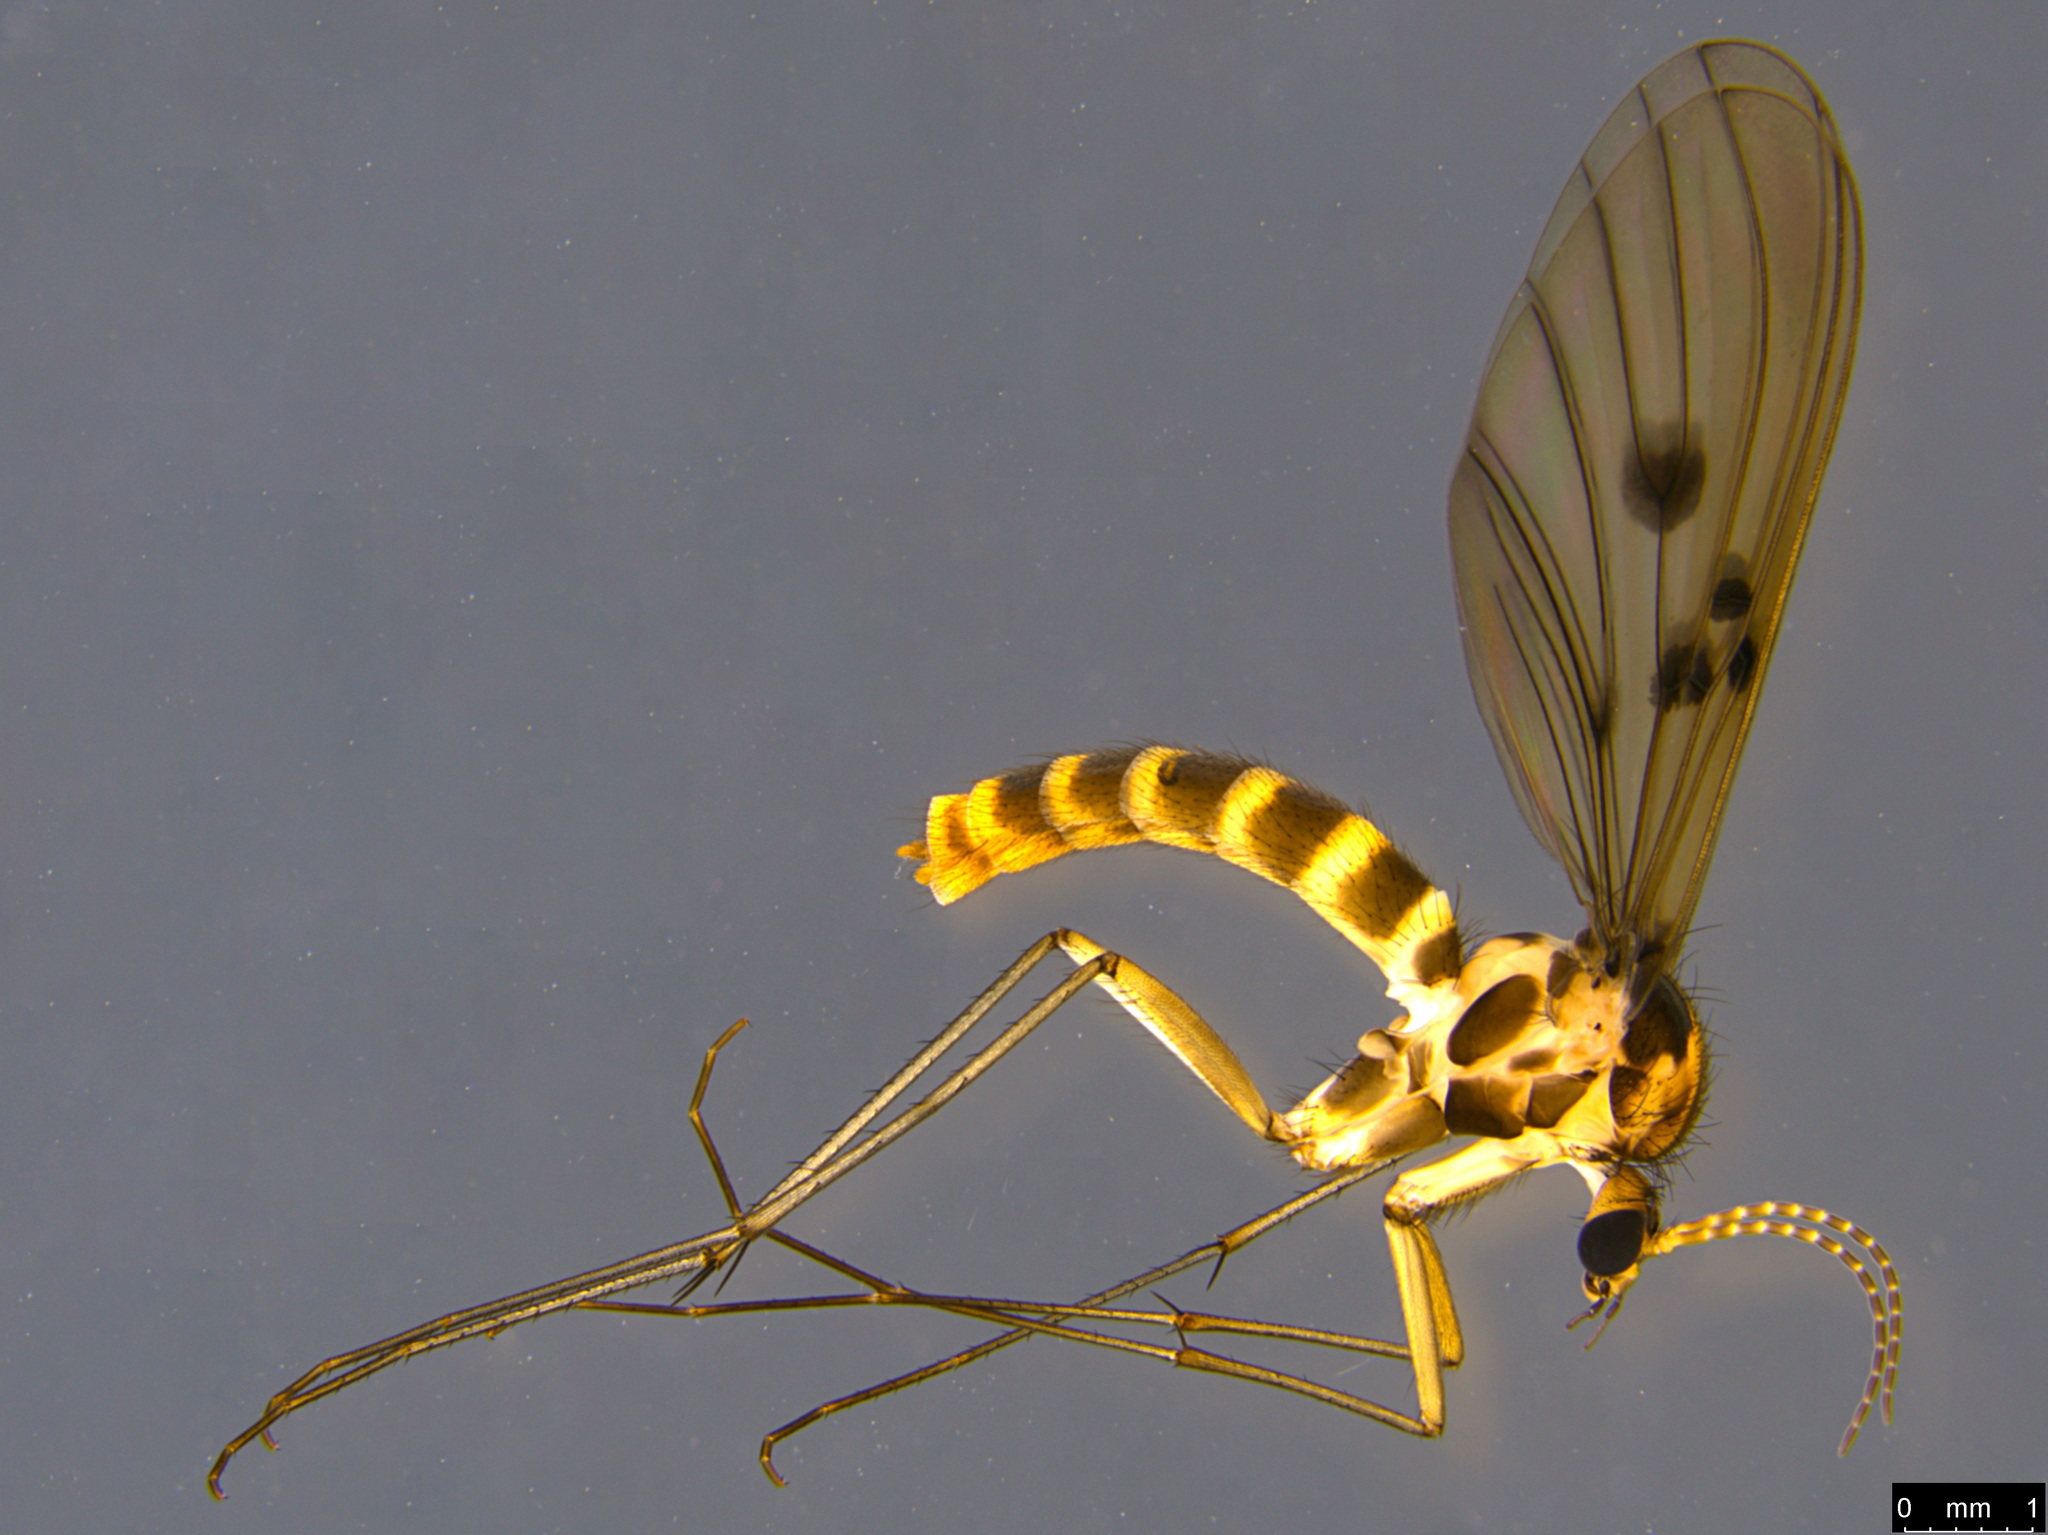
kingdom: Animalia
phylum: Arthropoda
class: Insecta
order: Diptera
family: Mycetophilidae
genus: Mycomya
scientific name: Mycomya quadrimaculata
